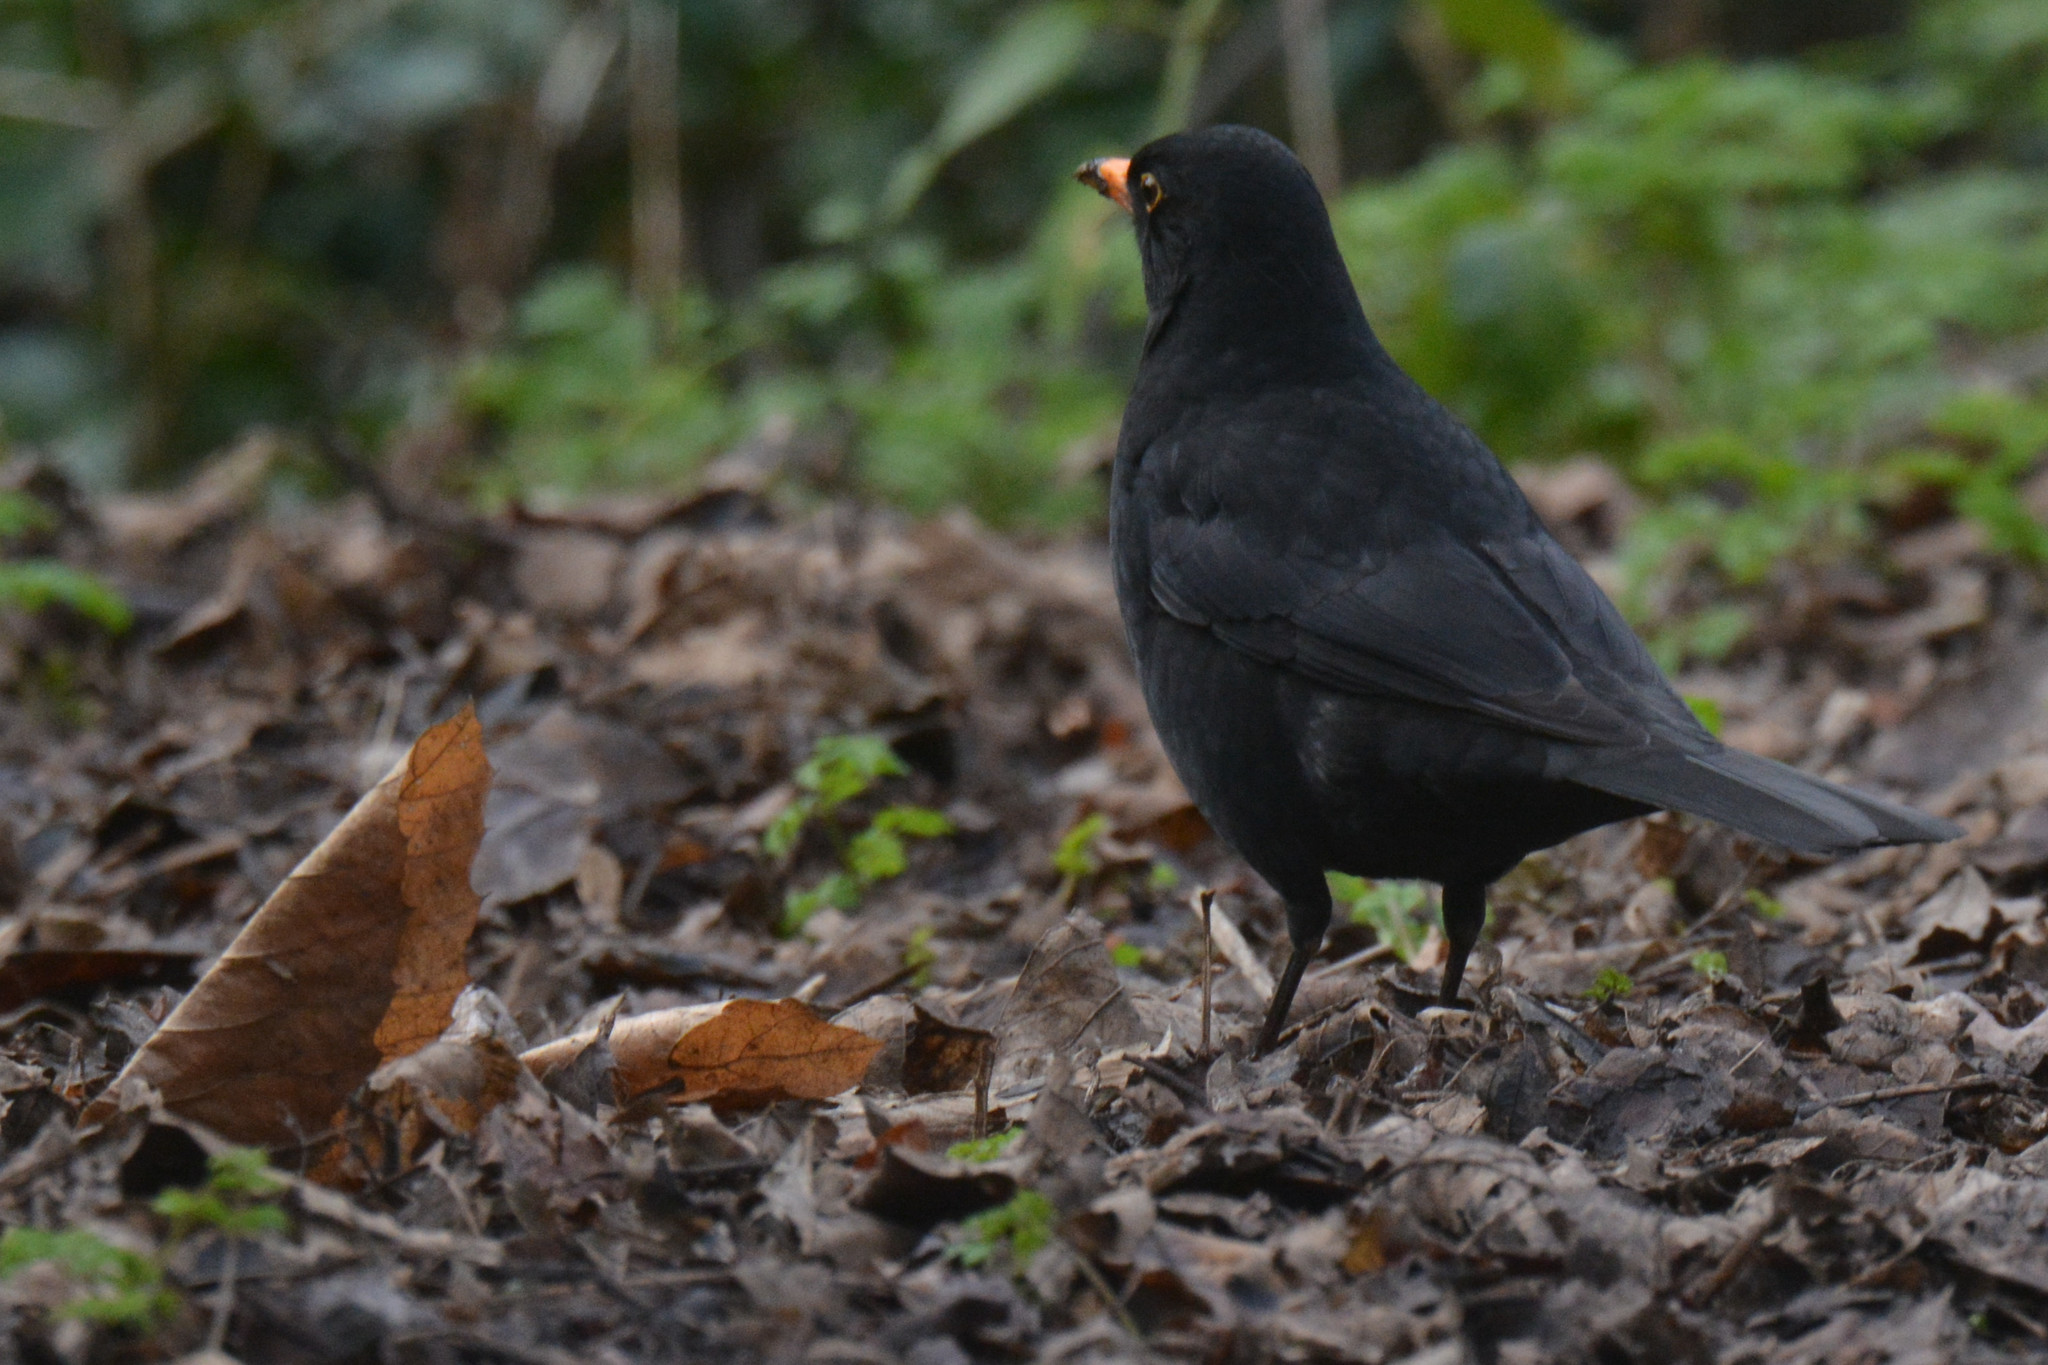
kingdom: Animalia
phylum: Chordata
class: Aves
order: Passeriformes
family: Turdidae
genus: Turdus
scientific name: Turdus merula
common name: Common blackbird
